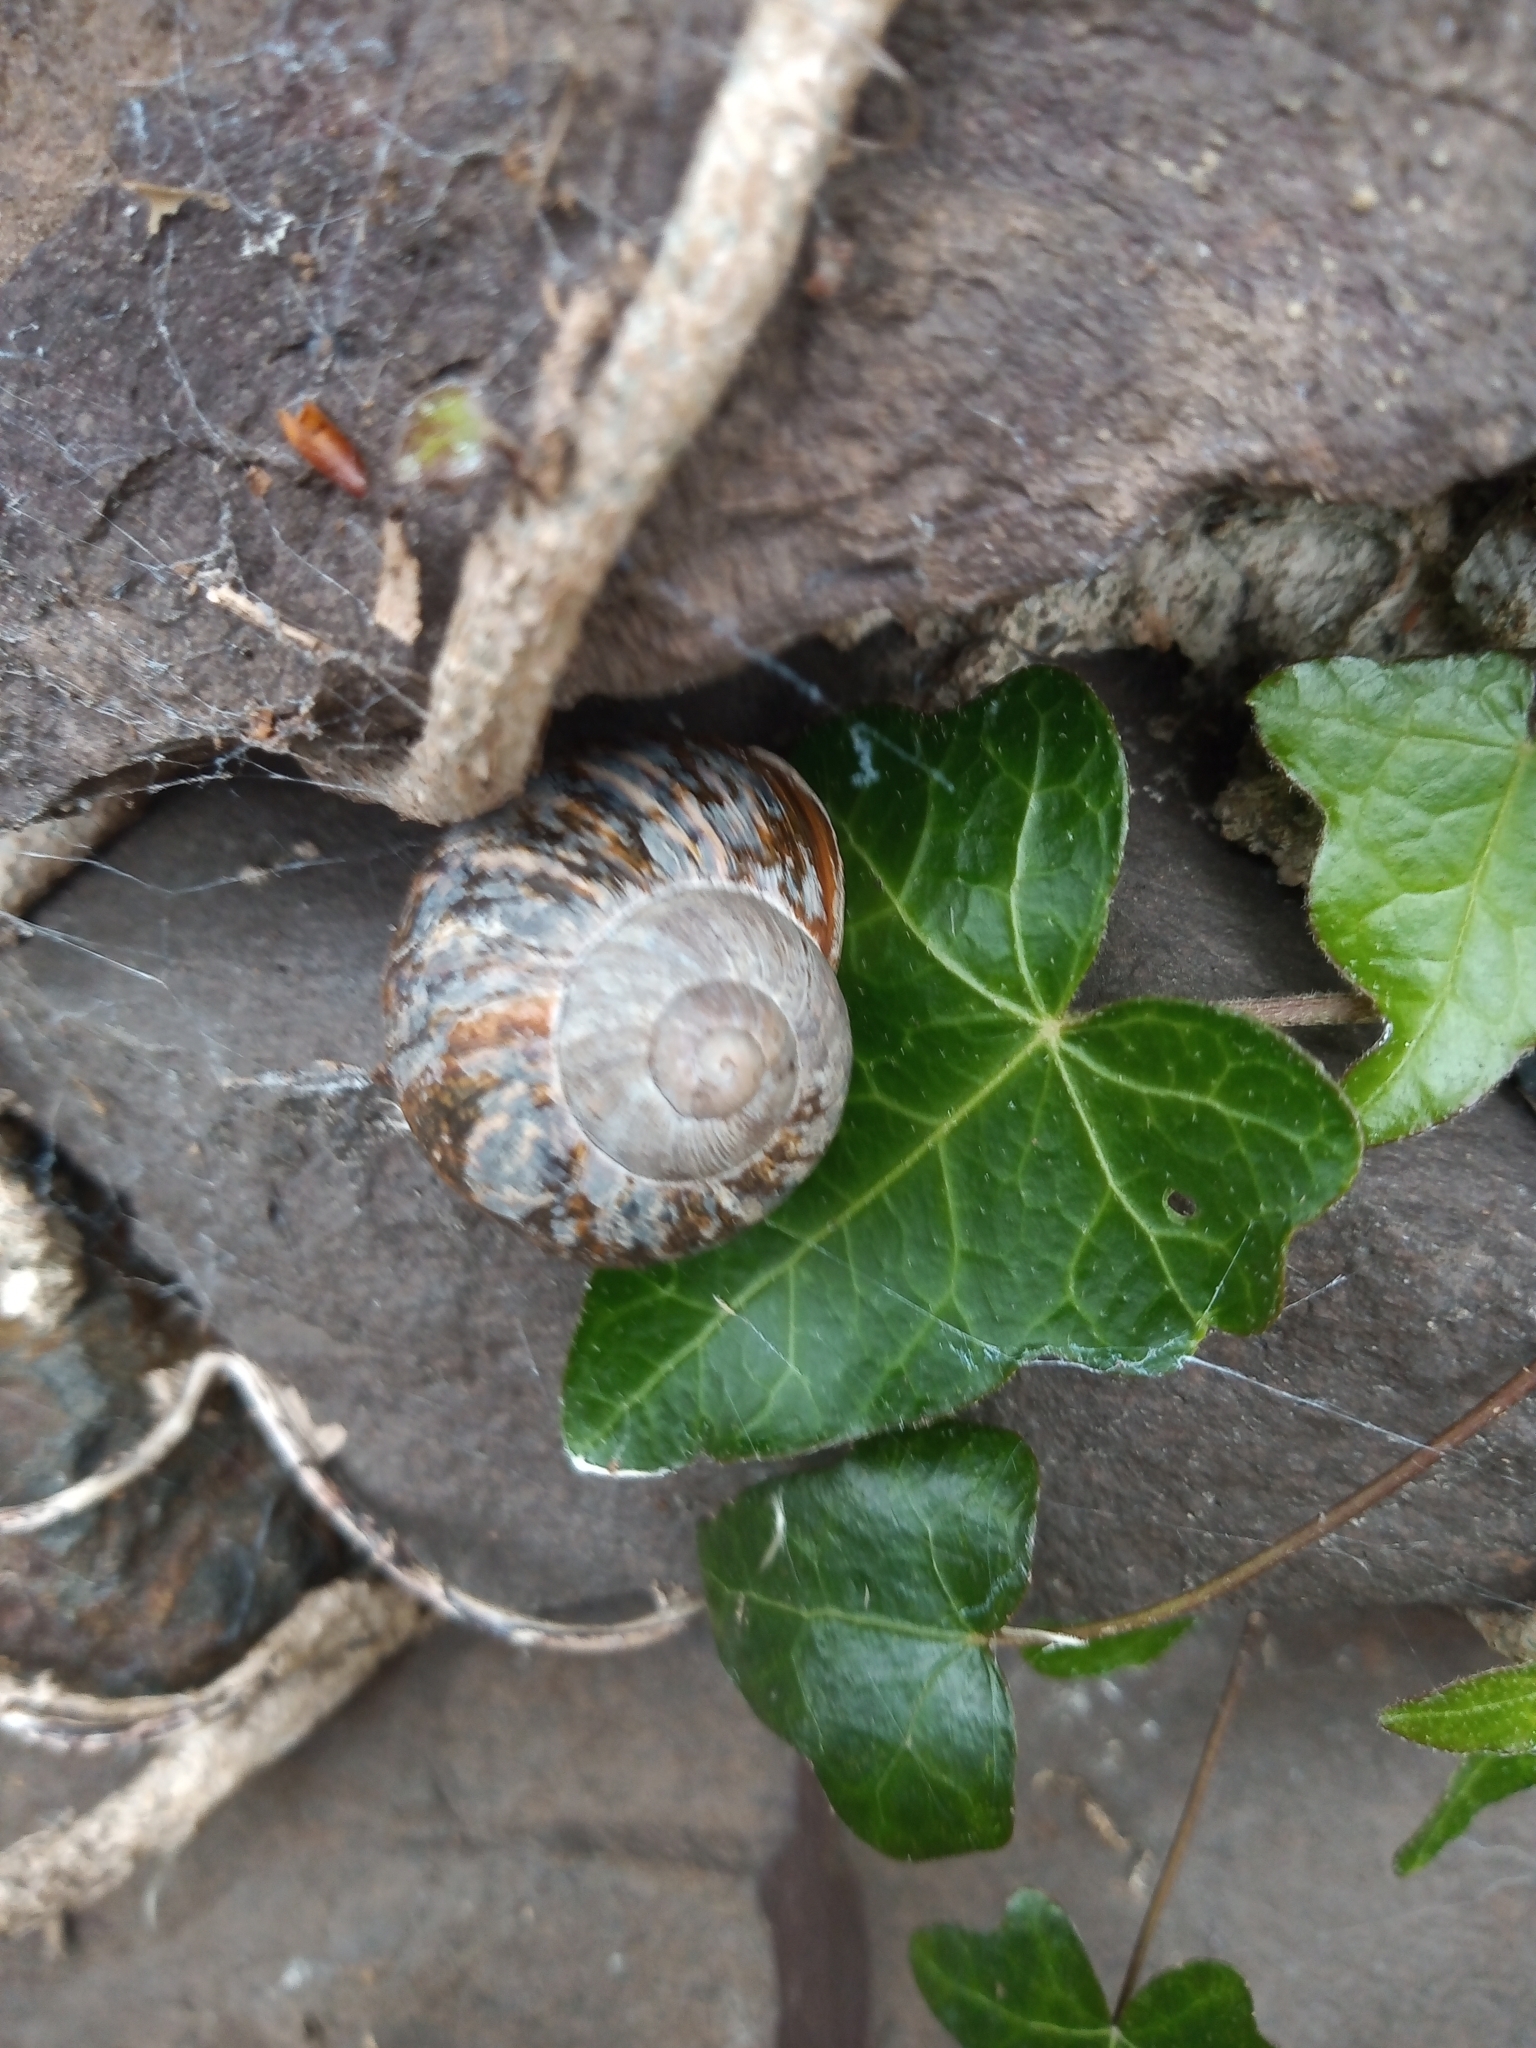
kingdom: Animalia
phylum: Mollusca
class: Gastropoda
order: Stylommatophora
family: Helicidae
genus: Cornu
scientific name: Cornu aspersum
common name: Brown garden snail
